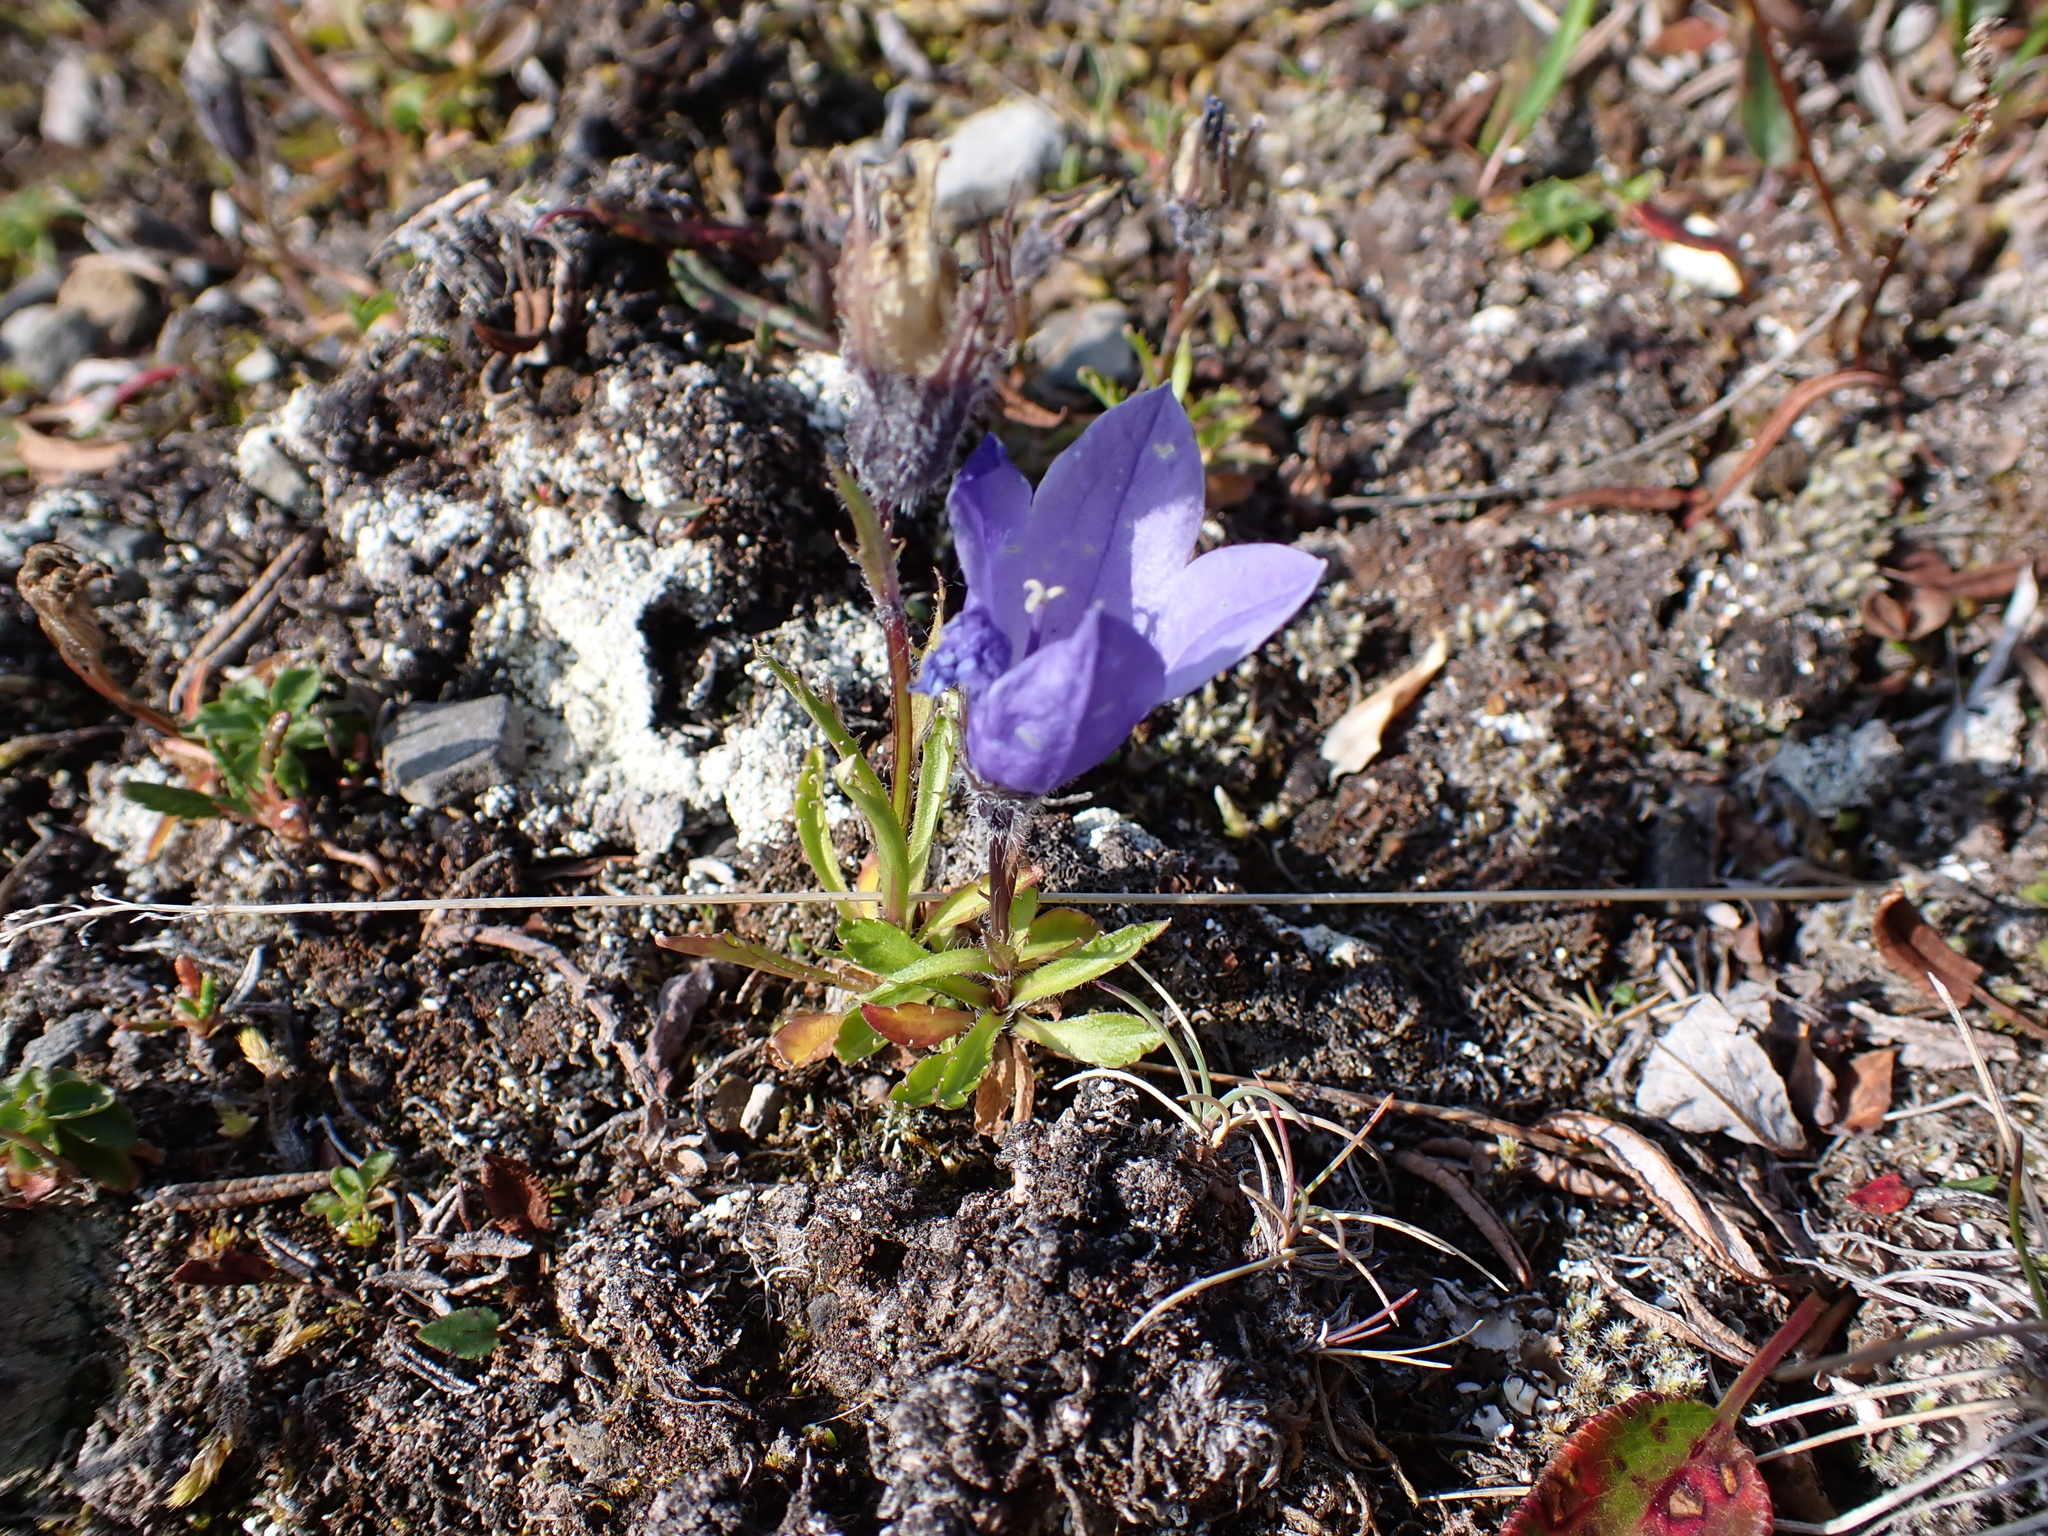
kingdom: Plantae
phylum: Tracheophyta
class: Magnoliopsida
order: Asterales
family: Campanulaceae
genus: Campanula
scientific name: Campanula lasiocarpa
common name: Mountain harebell
